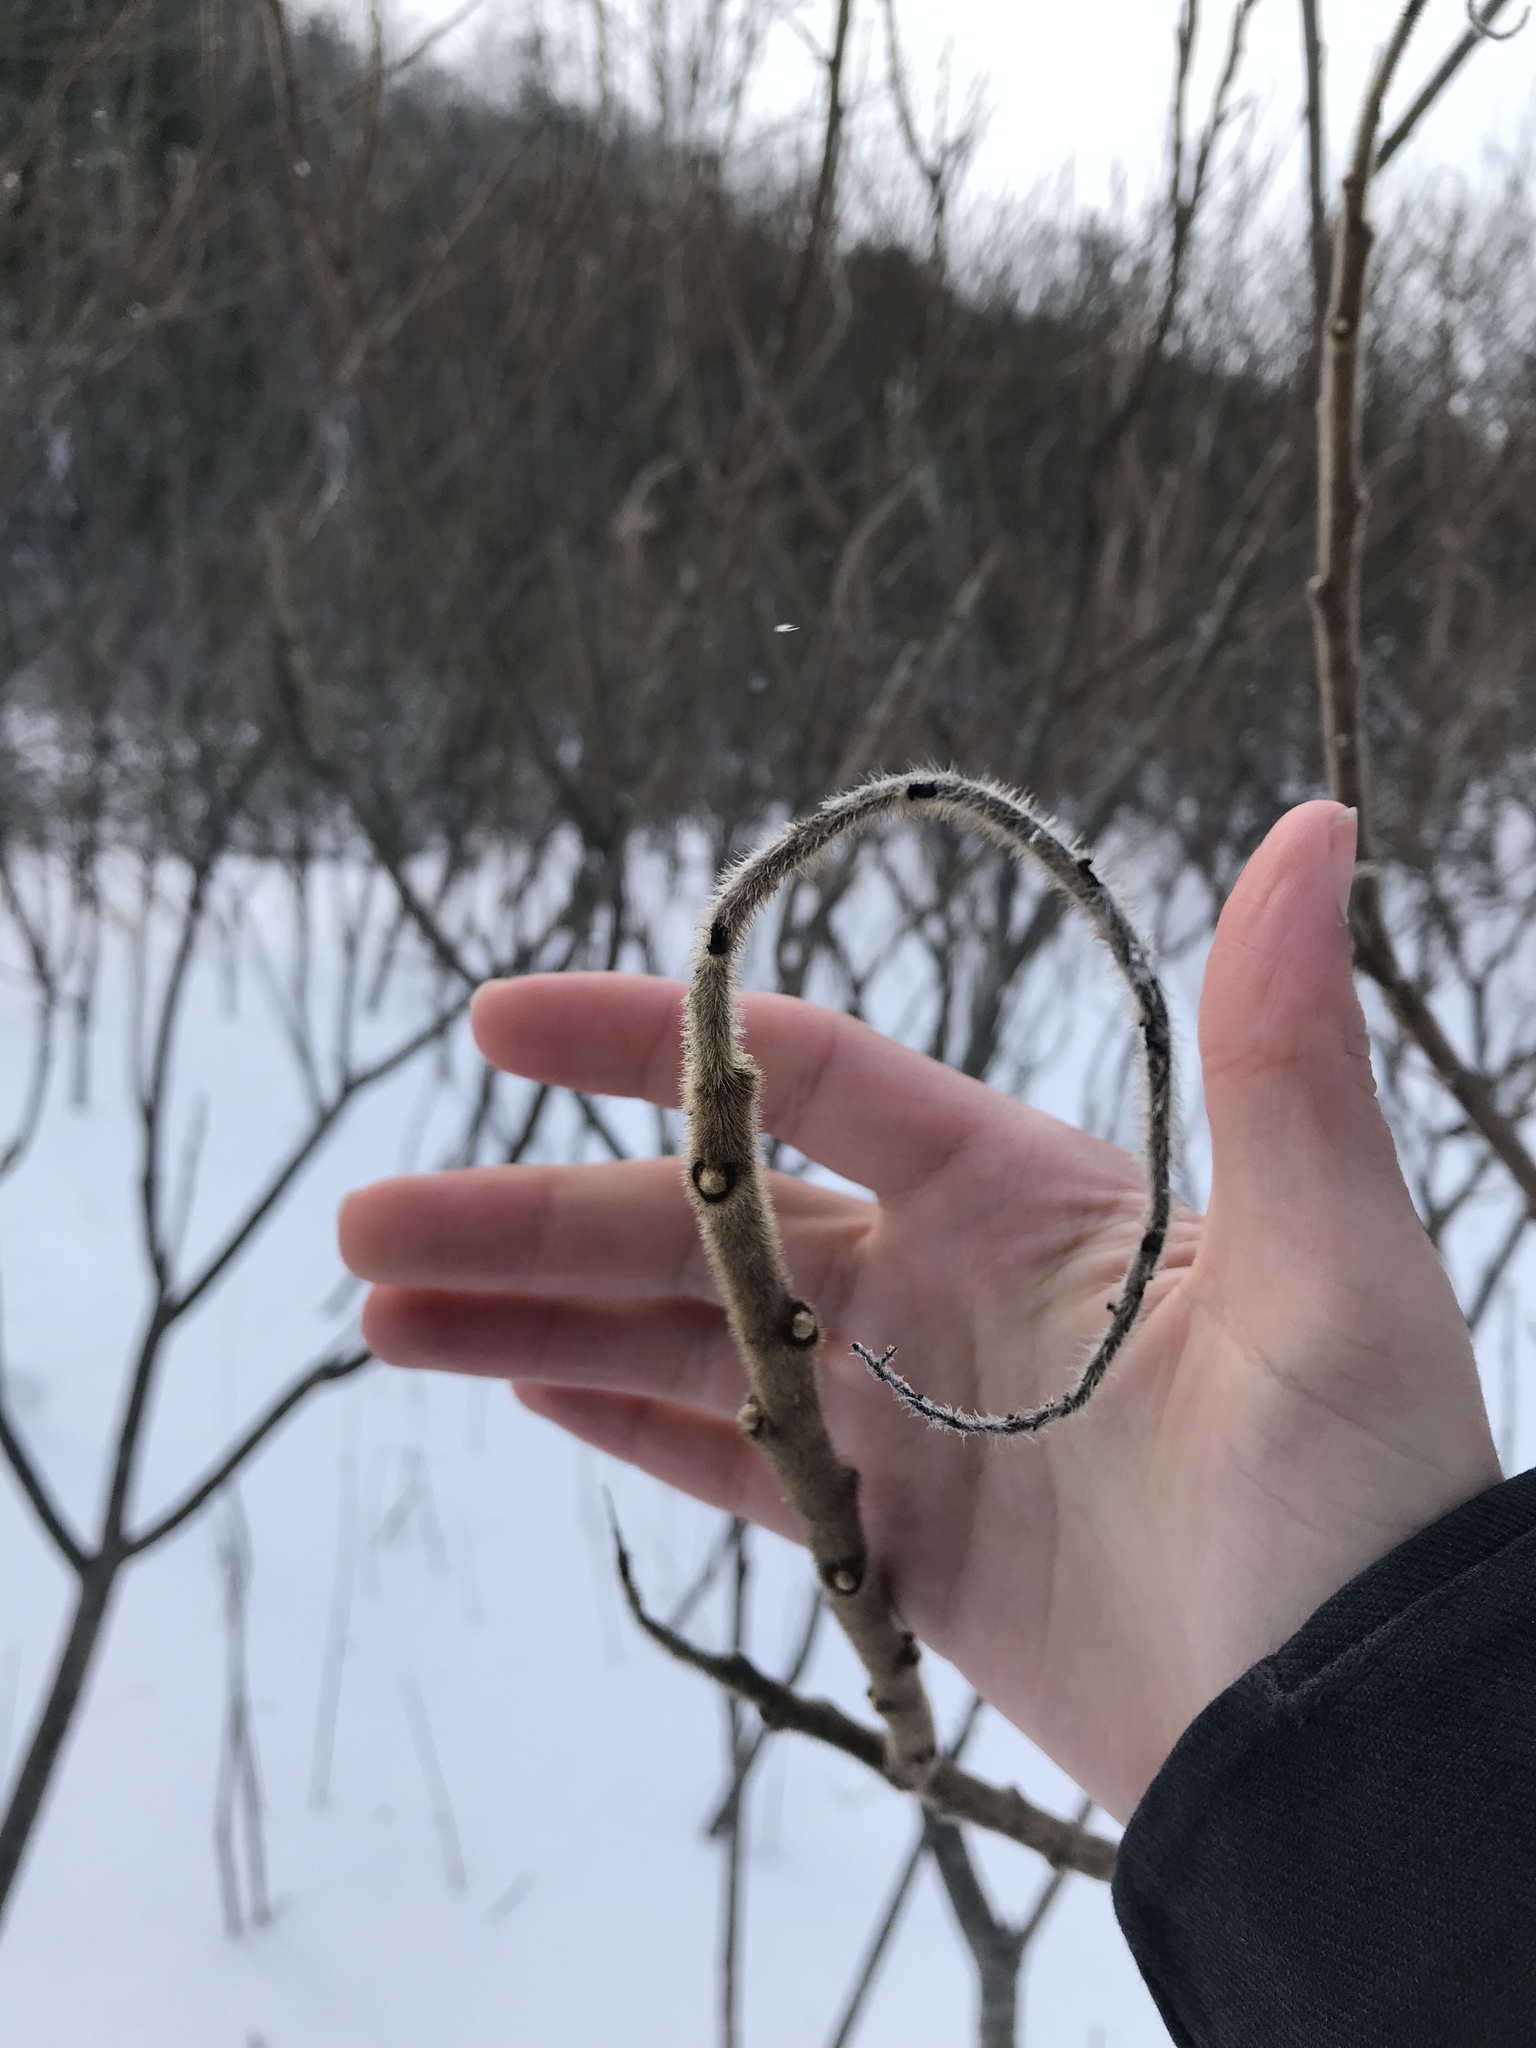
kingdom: Plantae
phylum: Tracheophyta
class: Magnoliopsida
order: Sapindales
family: Anacardiaceae
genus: Rhus
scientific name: Rhus typhina
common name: Staghorn sumac
